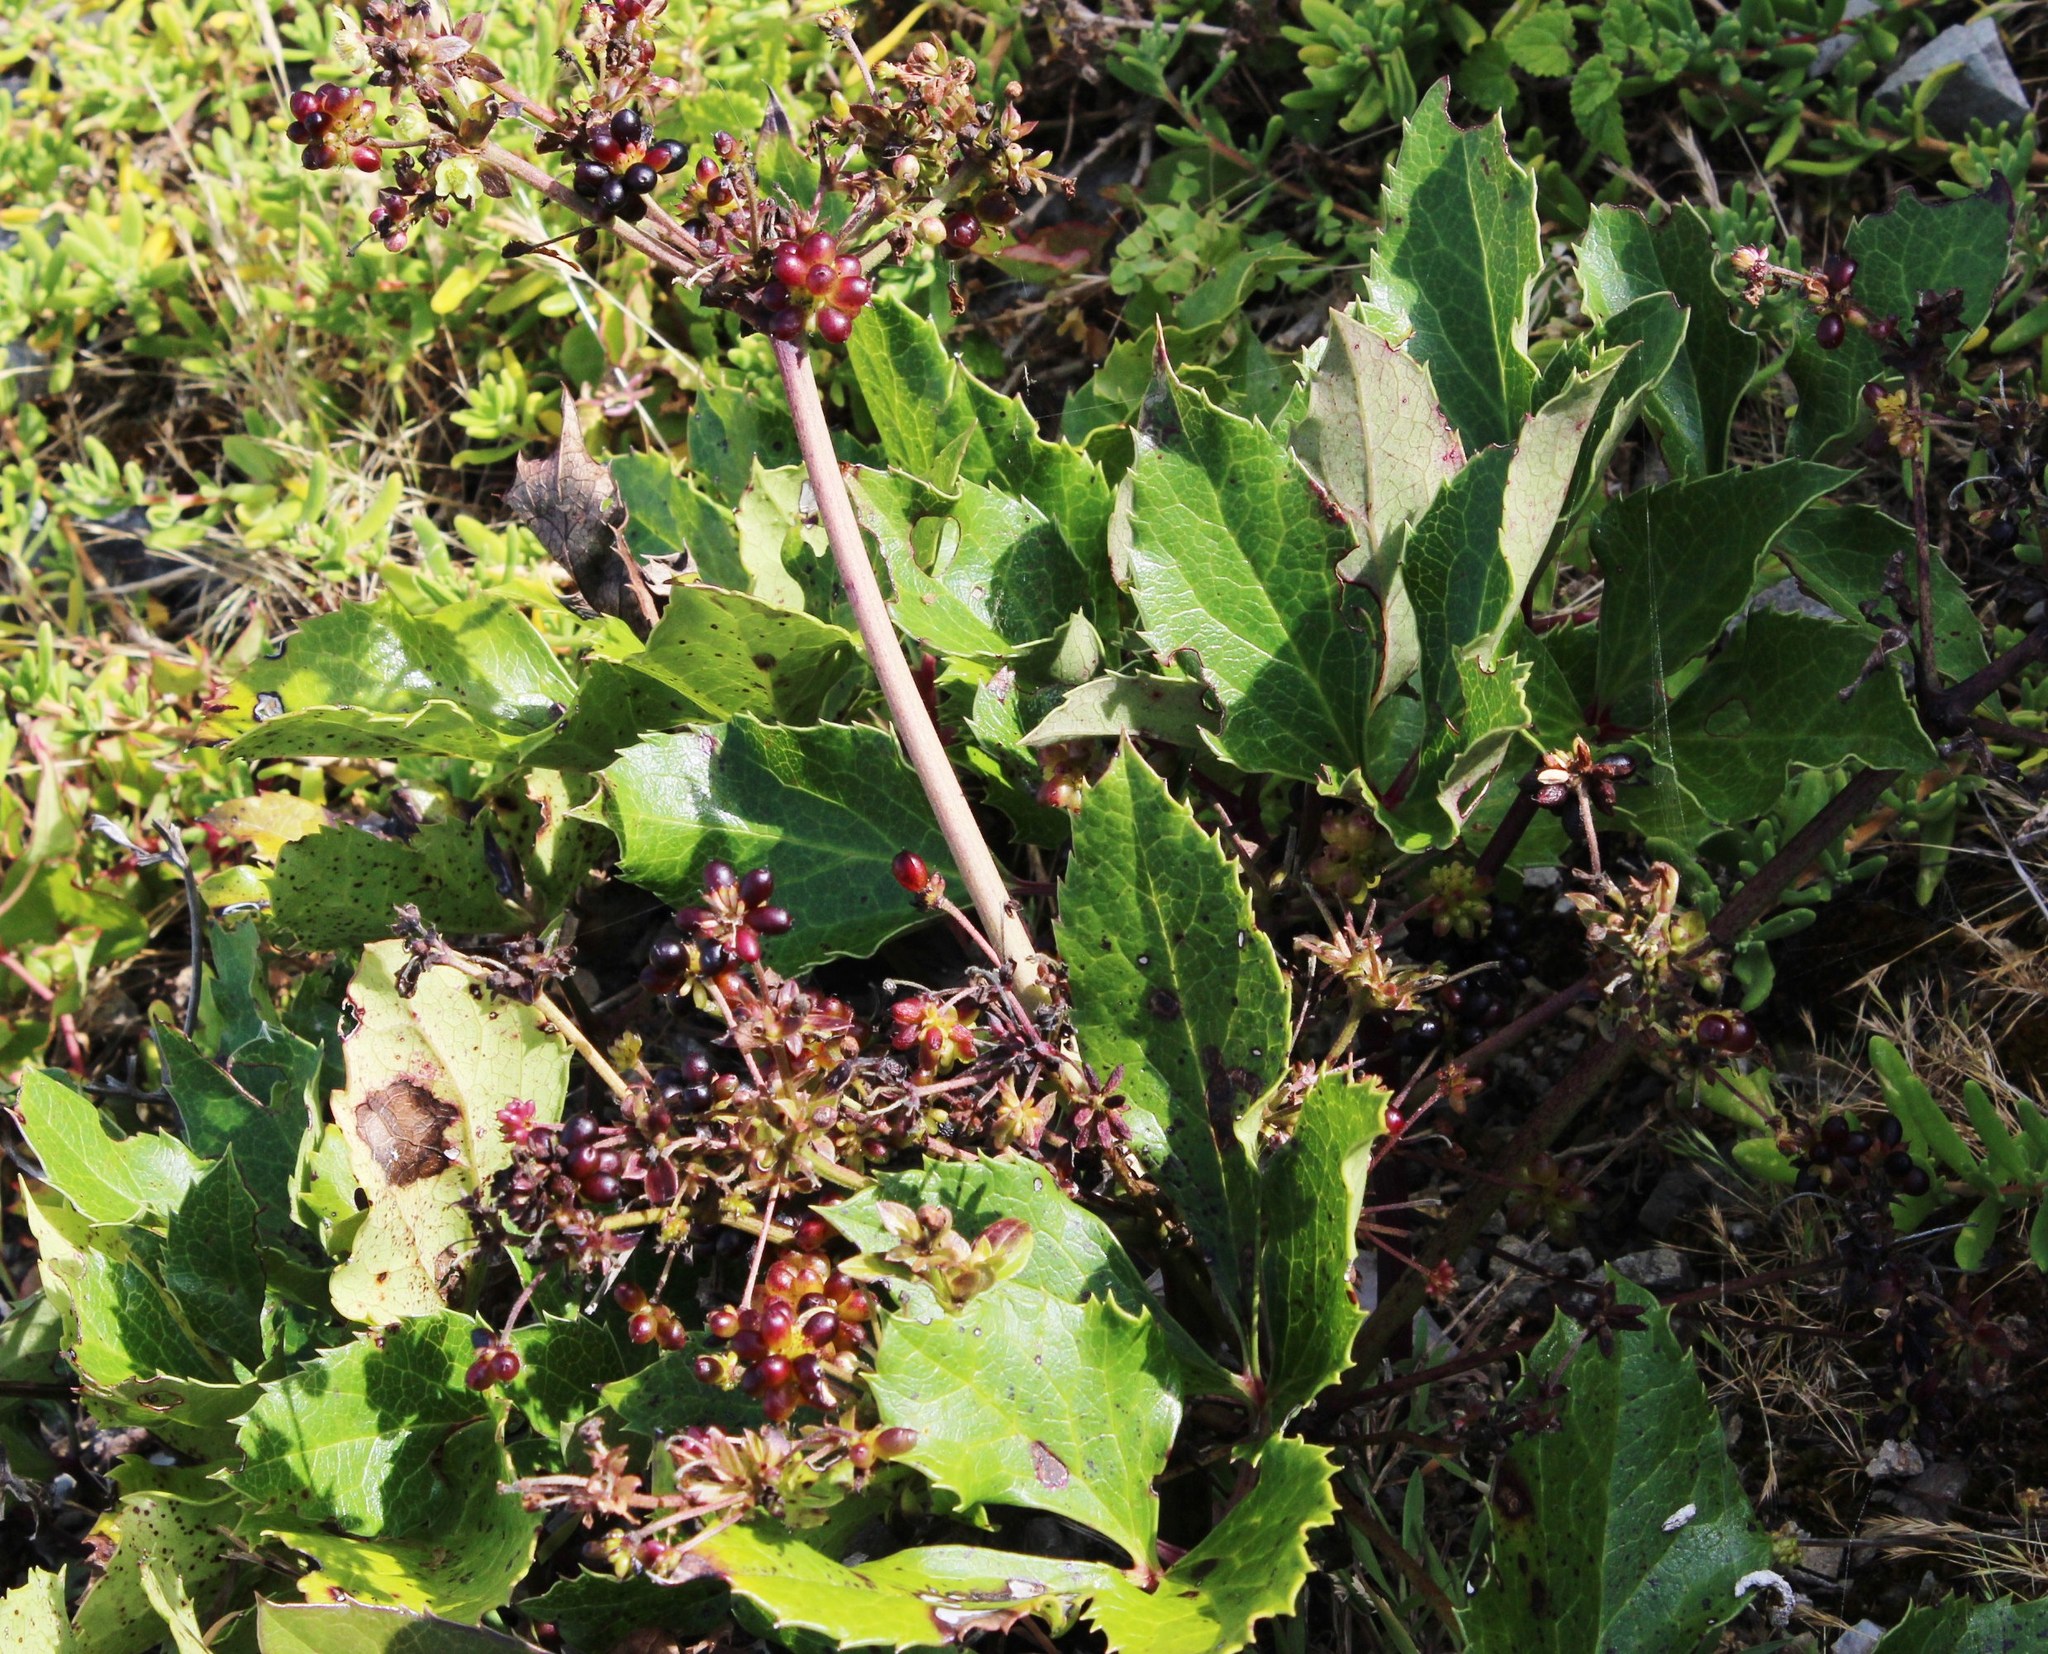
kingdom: Plantae
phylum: Tracheophyta
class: Magnoliopsida
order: Ranunculales
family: Ranunculaceae
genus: Knowltonia
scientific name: Knowltonia vesicatoria
